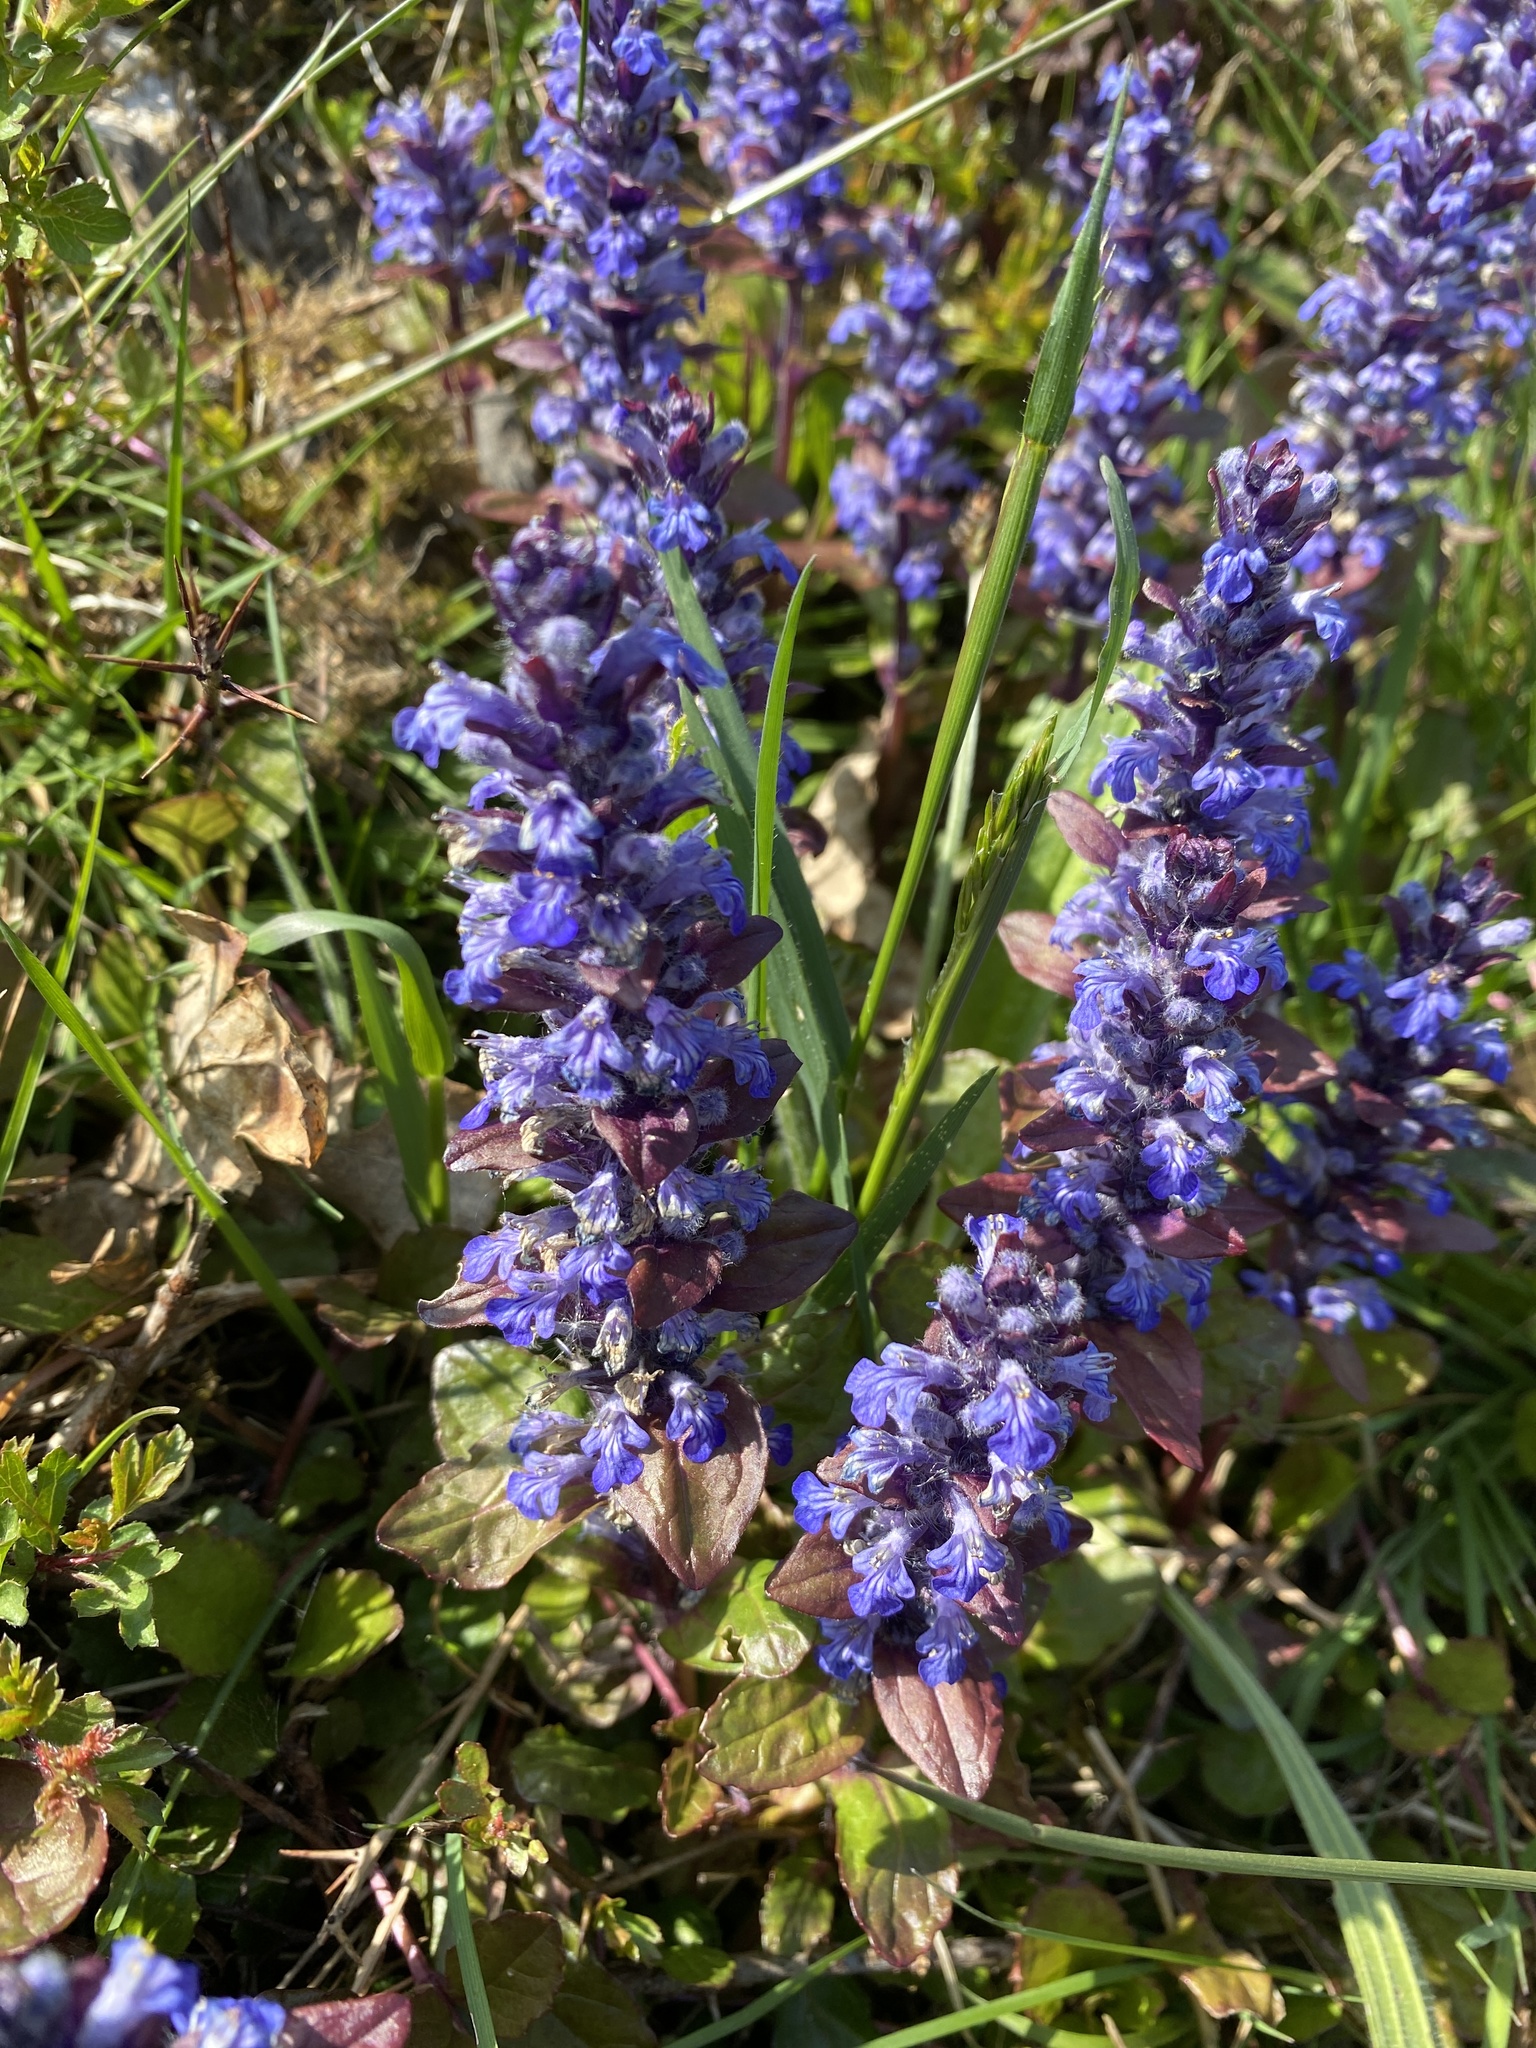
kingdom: Plantae
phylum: Tracheophyta
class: Magnoliopsida
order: Lamiales
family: Lamiaceae
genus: Ajuga
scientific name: Ajuga reptans
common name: Bugle
